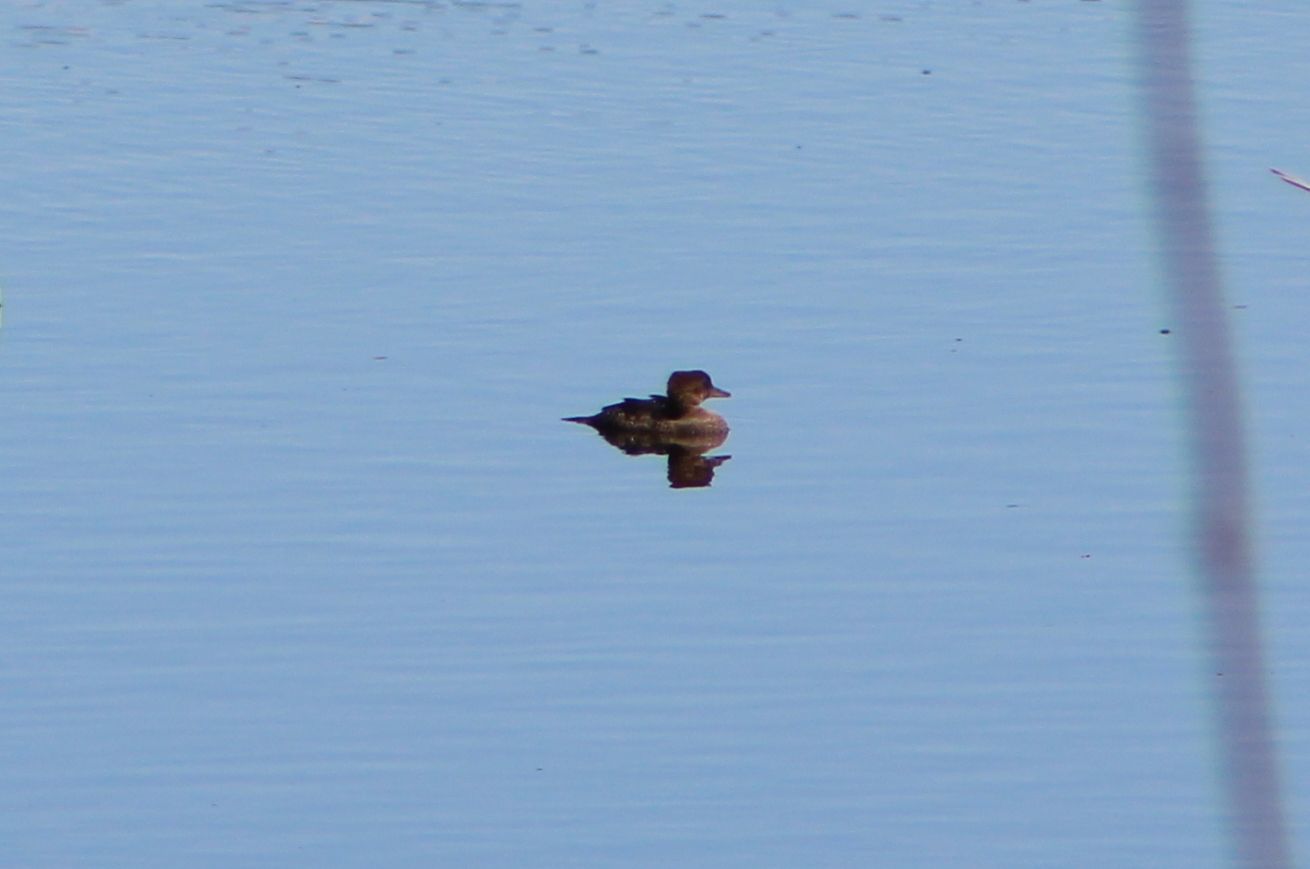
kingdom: Animalia
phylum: Chordata
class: Aves
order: Anseriformes
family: Anatidae
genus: Lophodytes
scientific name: Lophodytes cucullatus
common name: Hooded merganser
